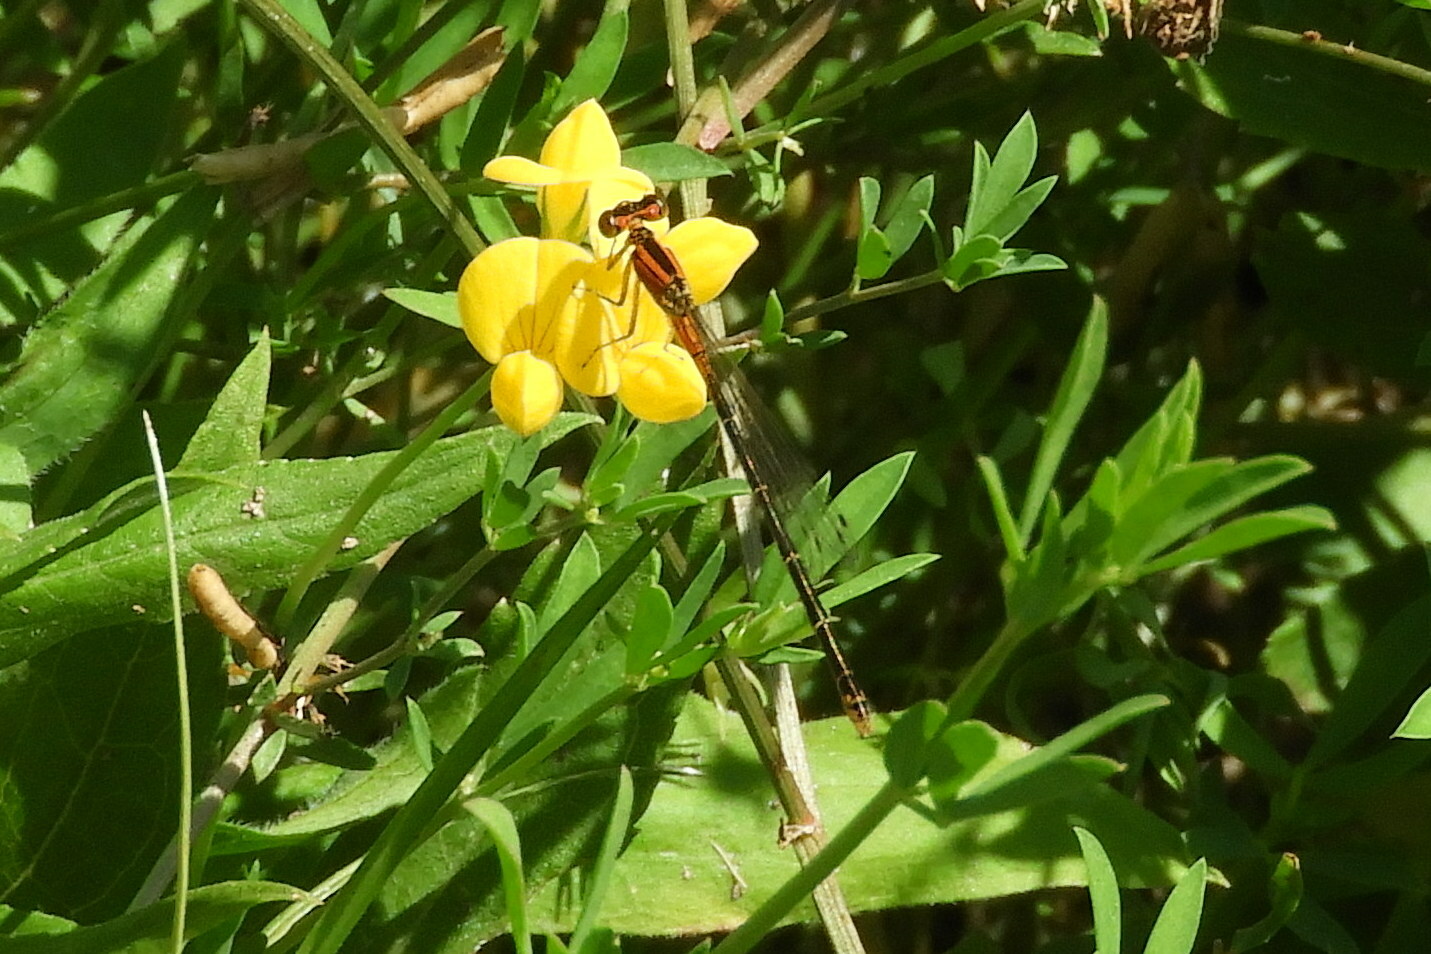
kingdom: Animalia
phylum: Arthropoda
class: Insecta
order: Odonata
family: Coenagrionidae
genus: Ischnura
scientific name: Ischnura verticalis
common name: Eastern forktail
